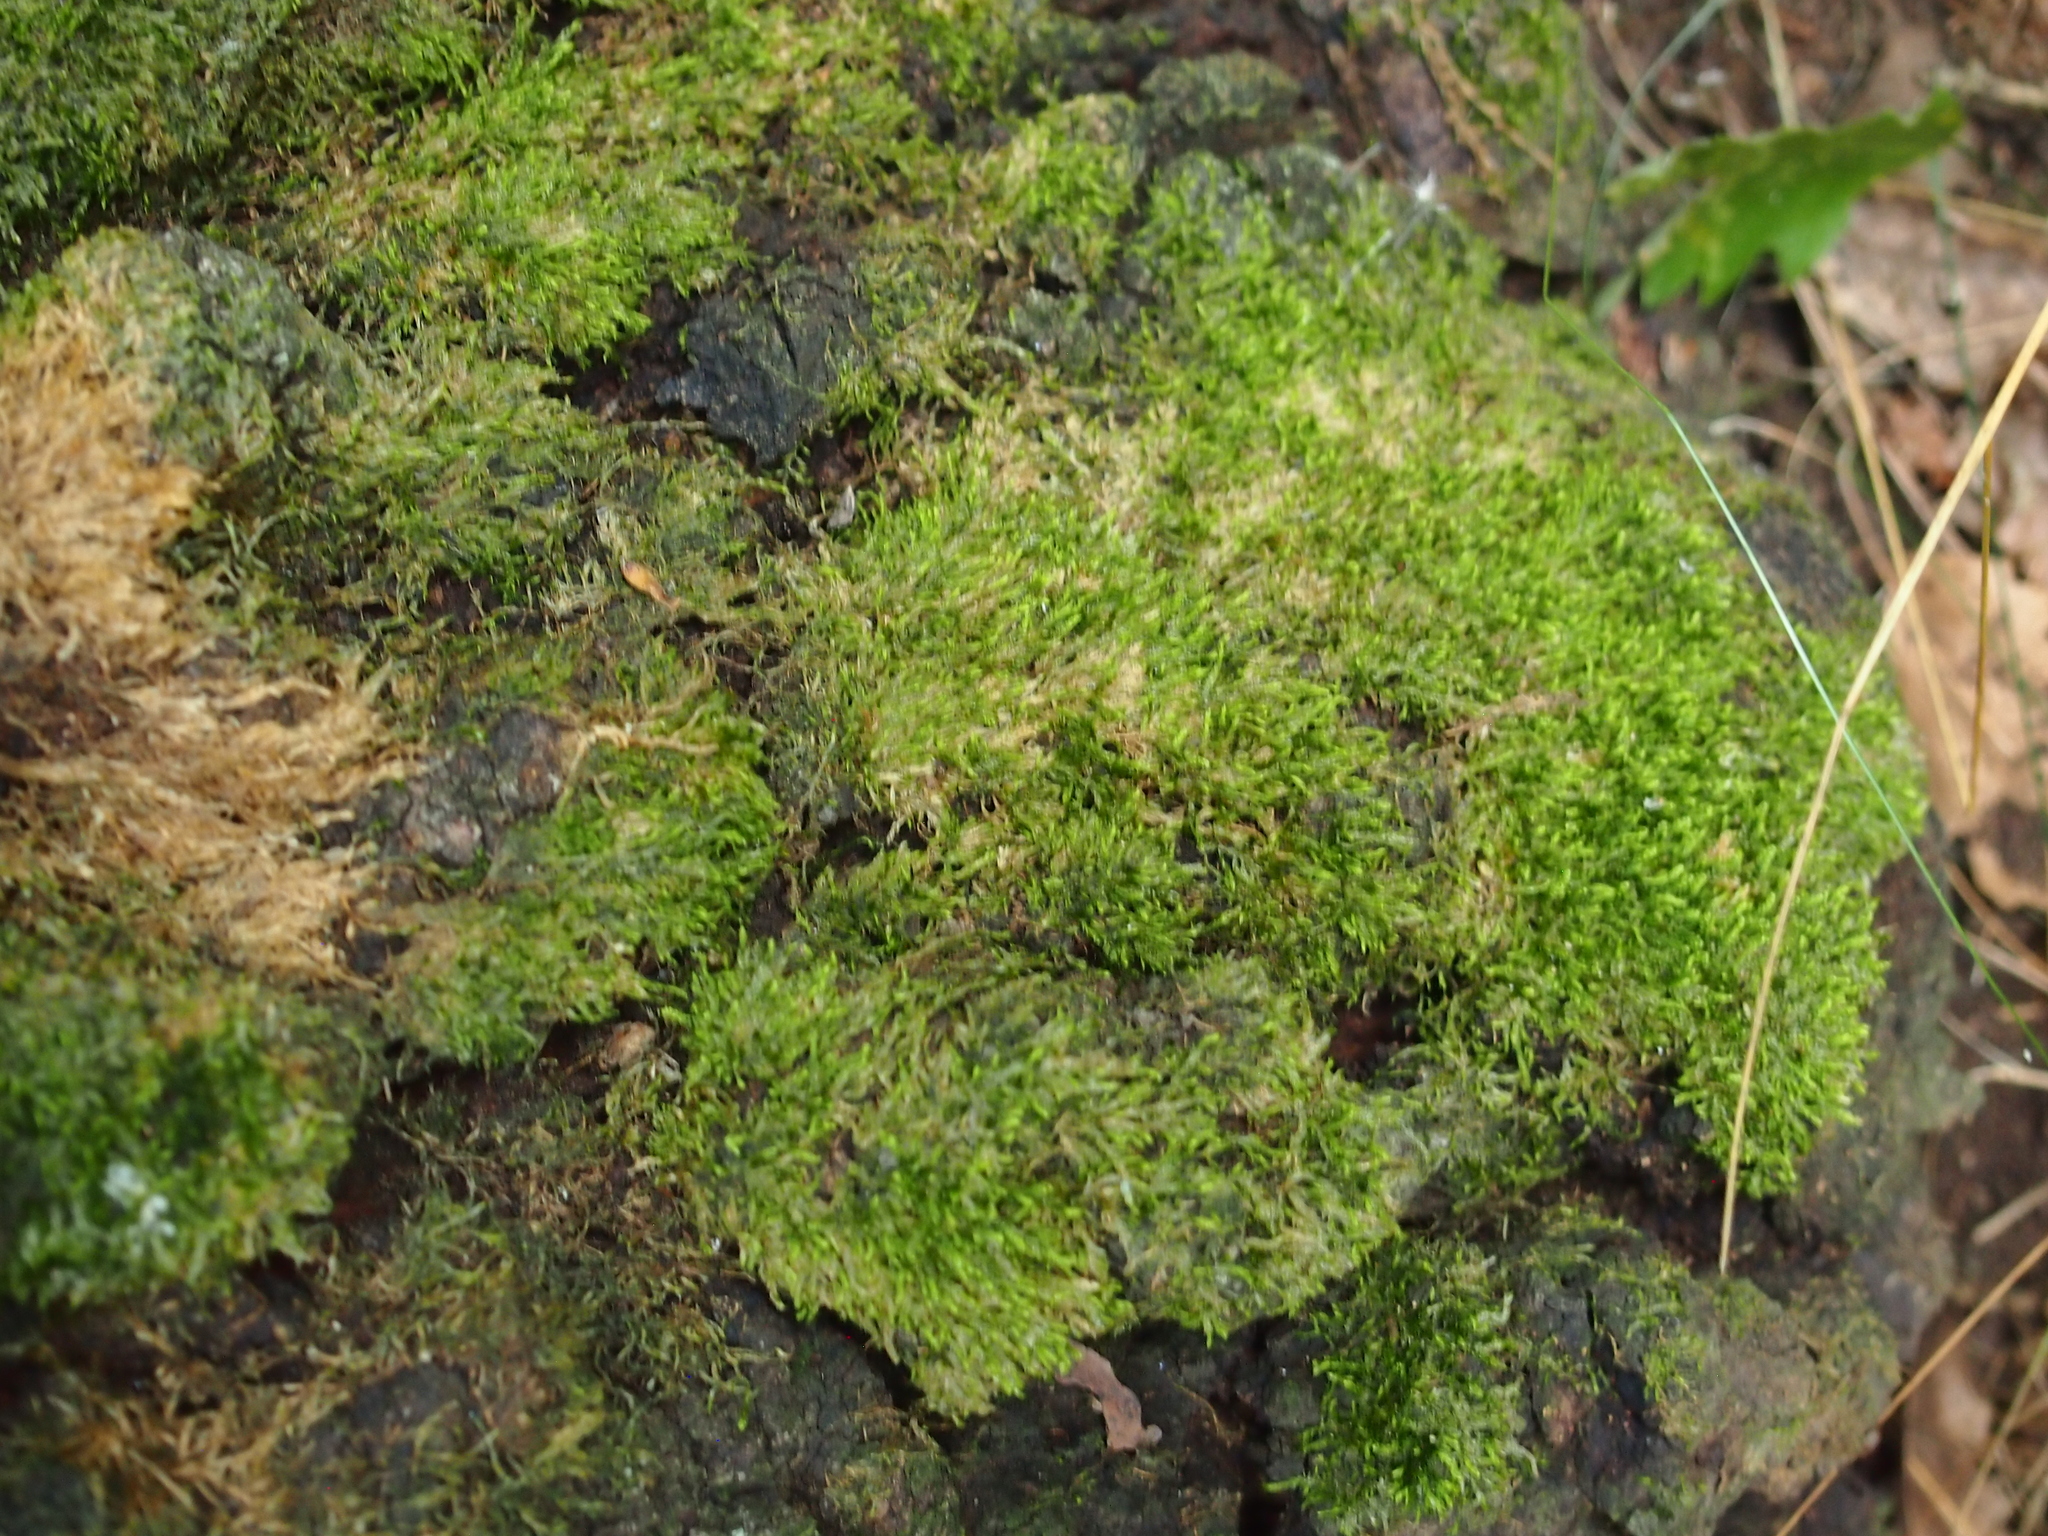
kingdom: Plantae
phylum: Bryophyta
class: Bryopsida
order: Hypnales
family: Hypnaceae
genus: Hypnum
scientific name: Hypnum cupressiforme
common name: Cypress-leaved plait-moss
